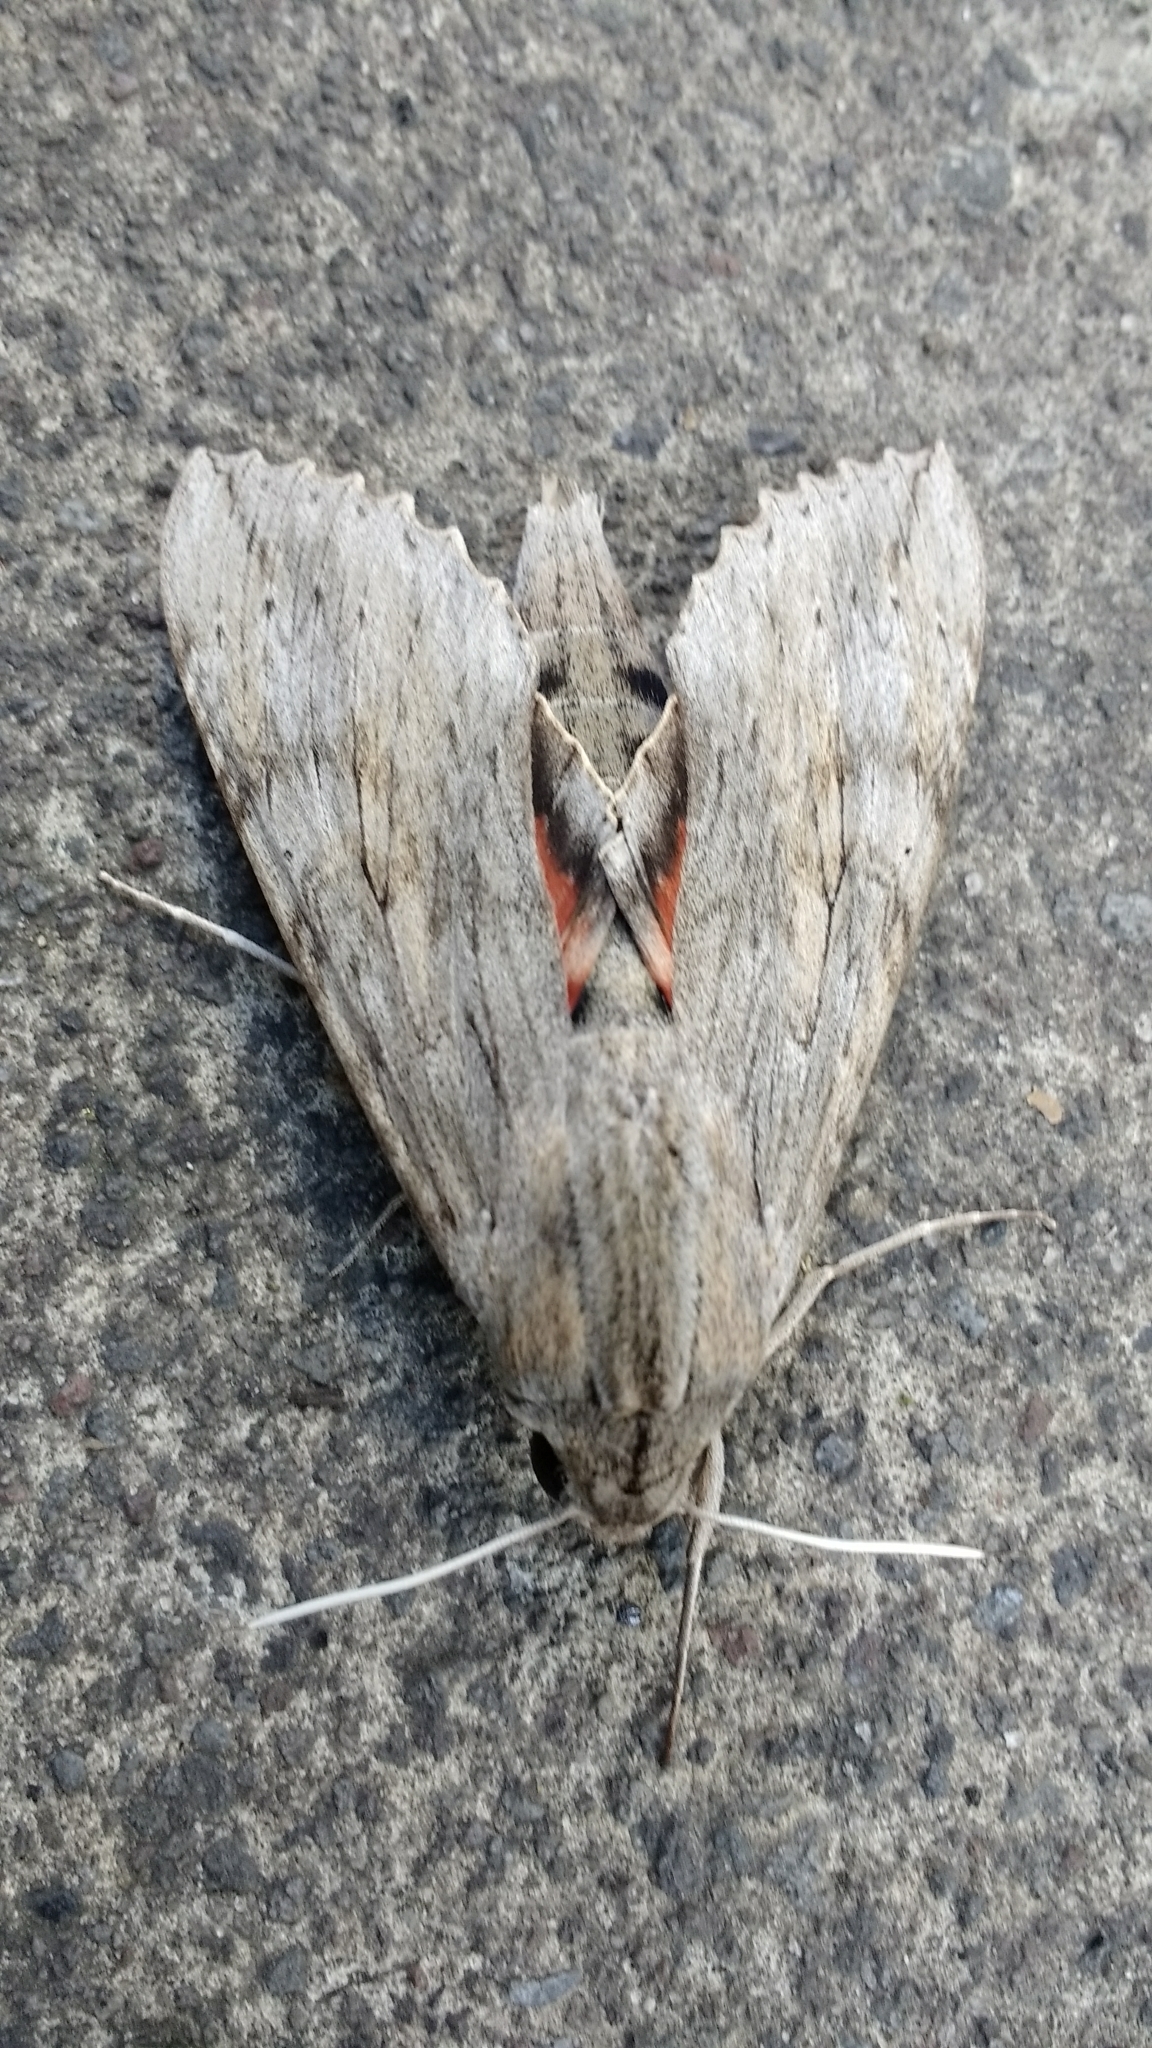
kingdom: Animalia
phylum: Arthropoda
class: Insecta
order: Lepidoptera
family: Sphingidae
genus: Erinnyis
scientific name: Erinnyis ello
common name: Ello sphinx
